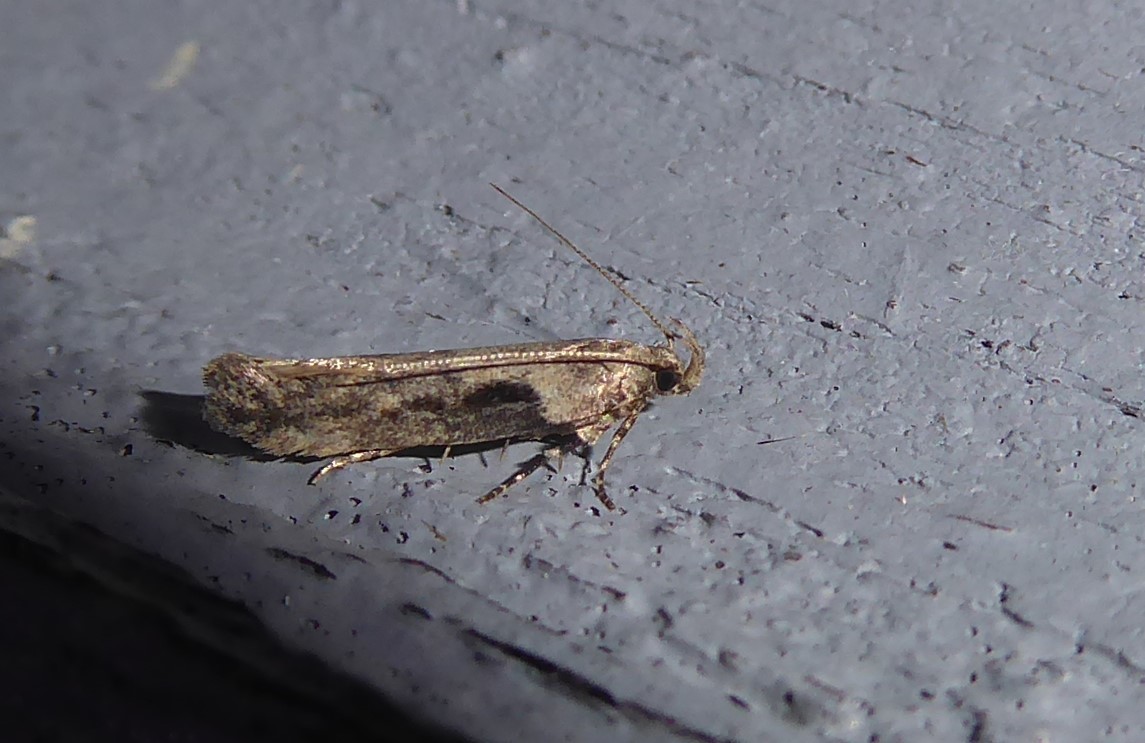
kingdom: Animalia
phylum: Arthropoda
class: Insecta
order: Lepidoptera
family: Gelechiidae
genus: Symmetrischema
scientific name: Symmetrischema tangolias
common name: Moth
